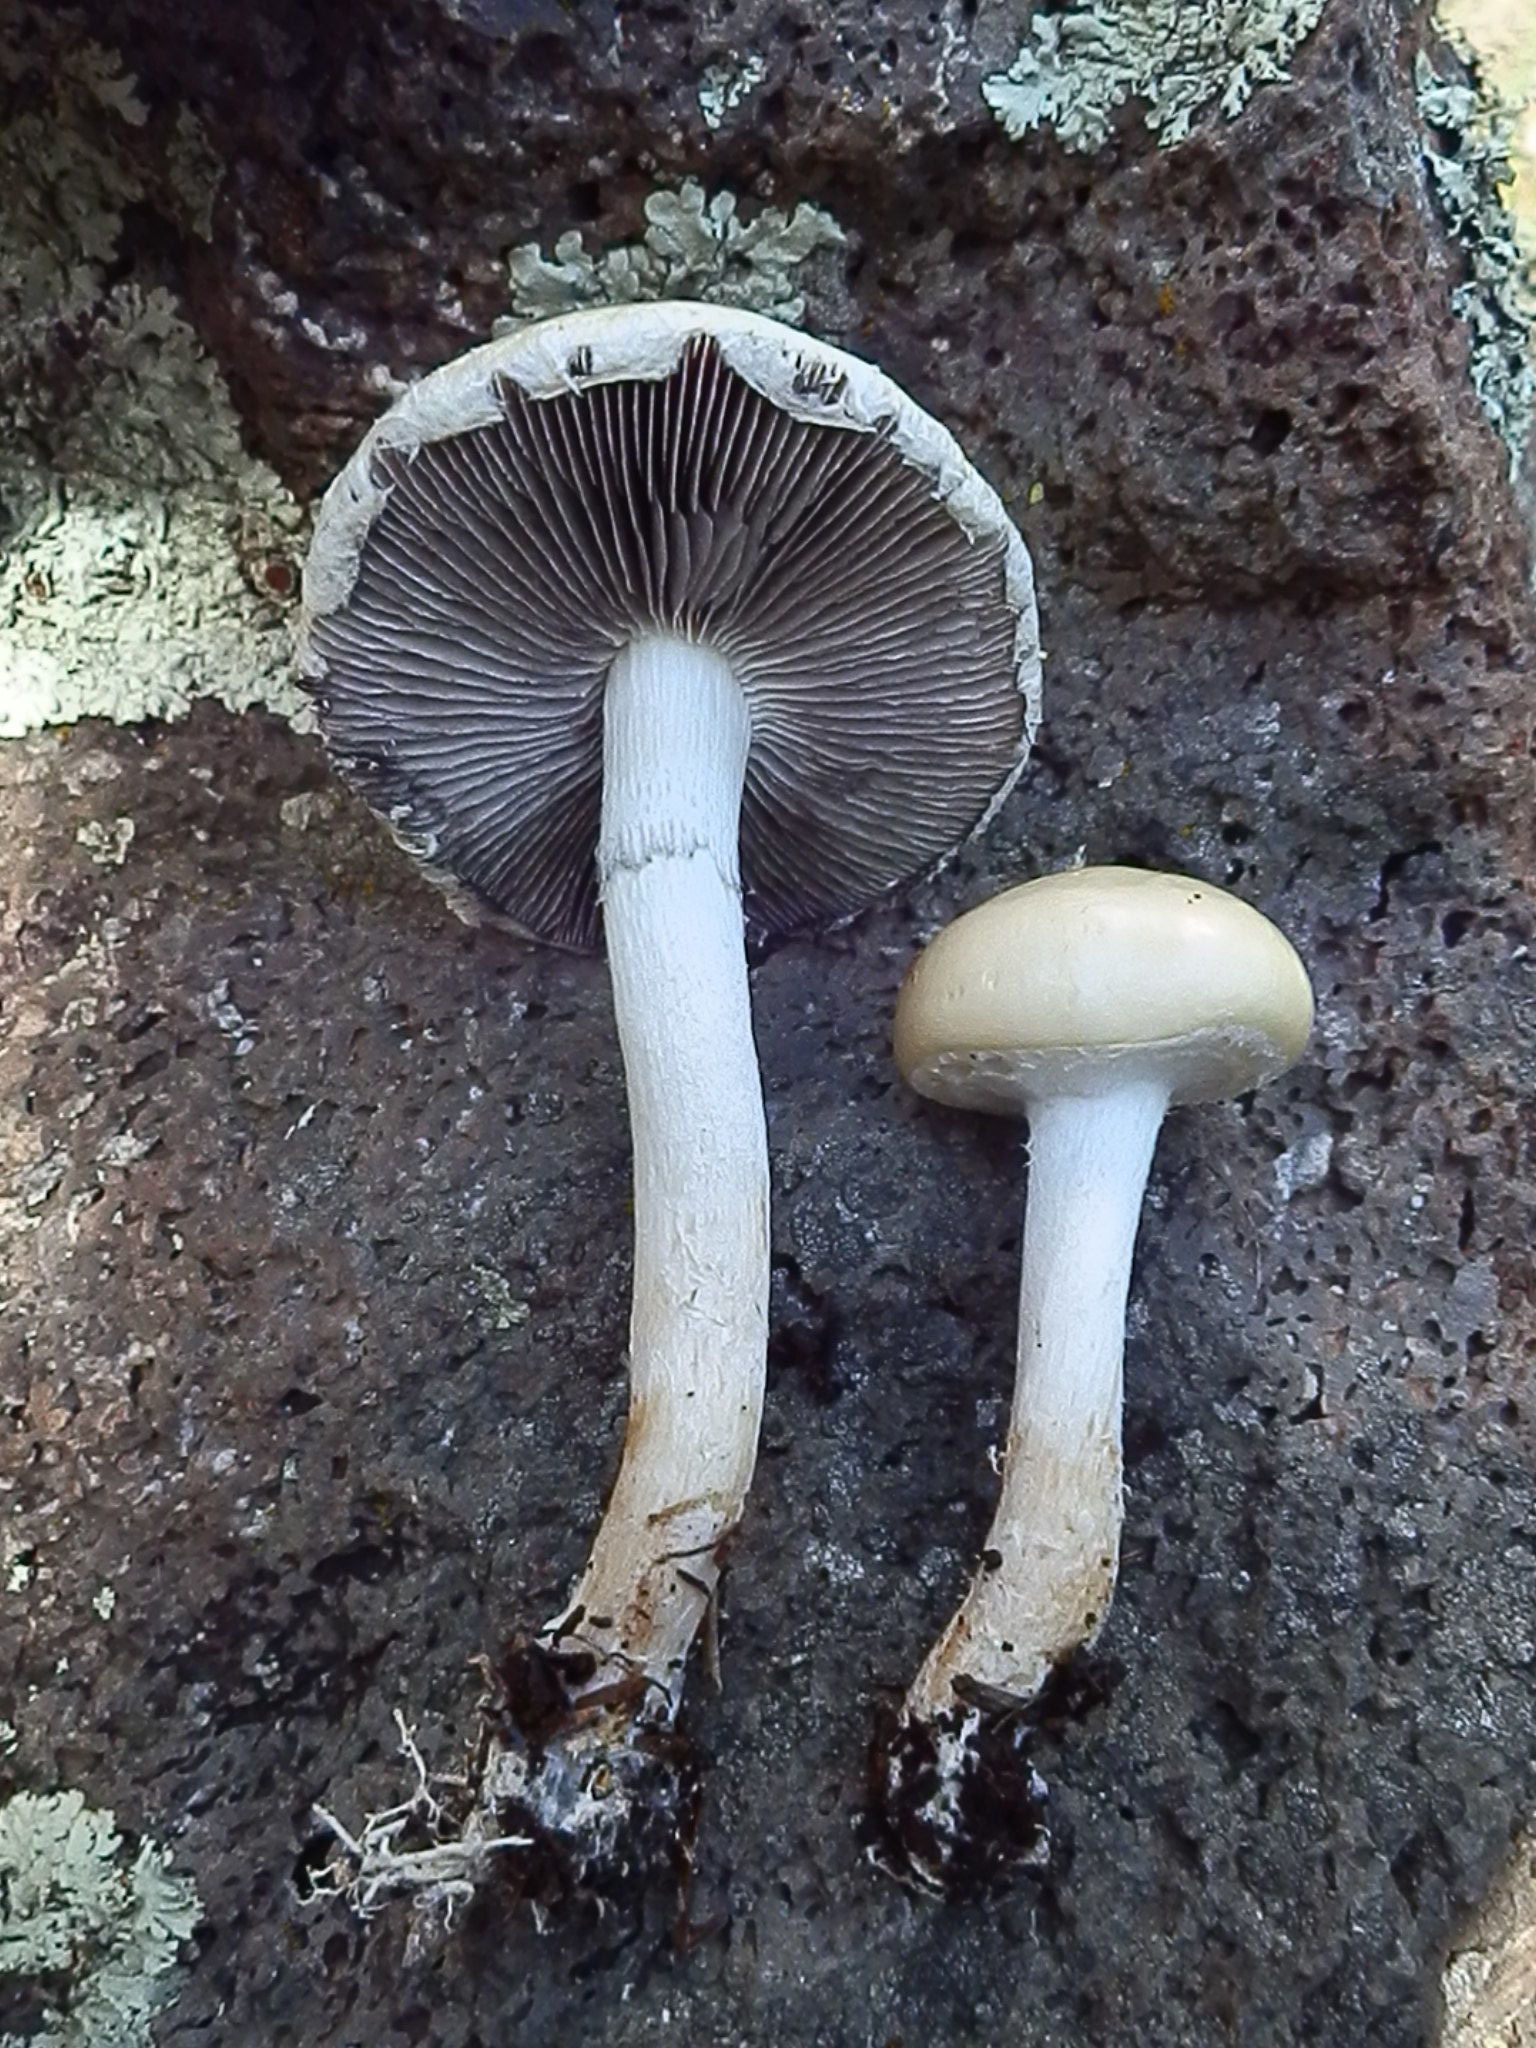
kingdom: Fungi
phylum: Basidiomycota
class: Agaricomycetes
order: Agaricales
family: Strophariaceae
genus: Stropharia
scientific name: Stropharia ambigua
